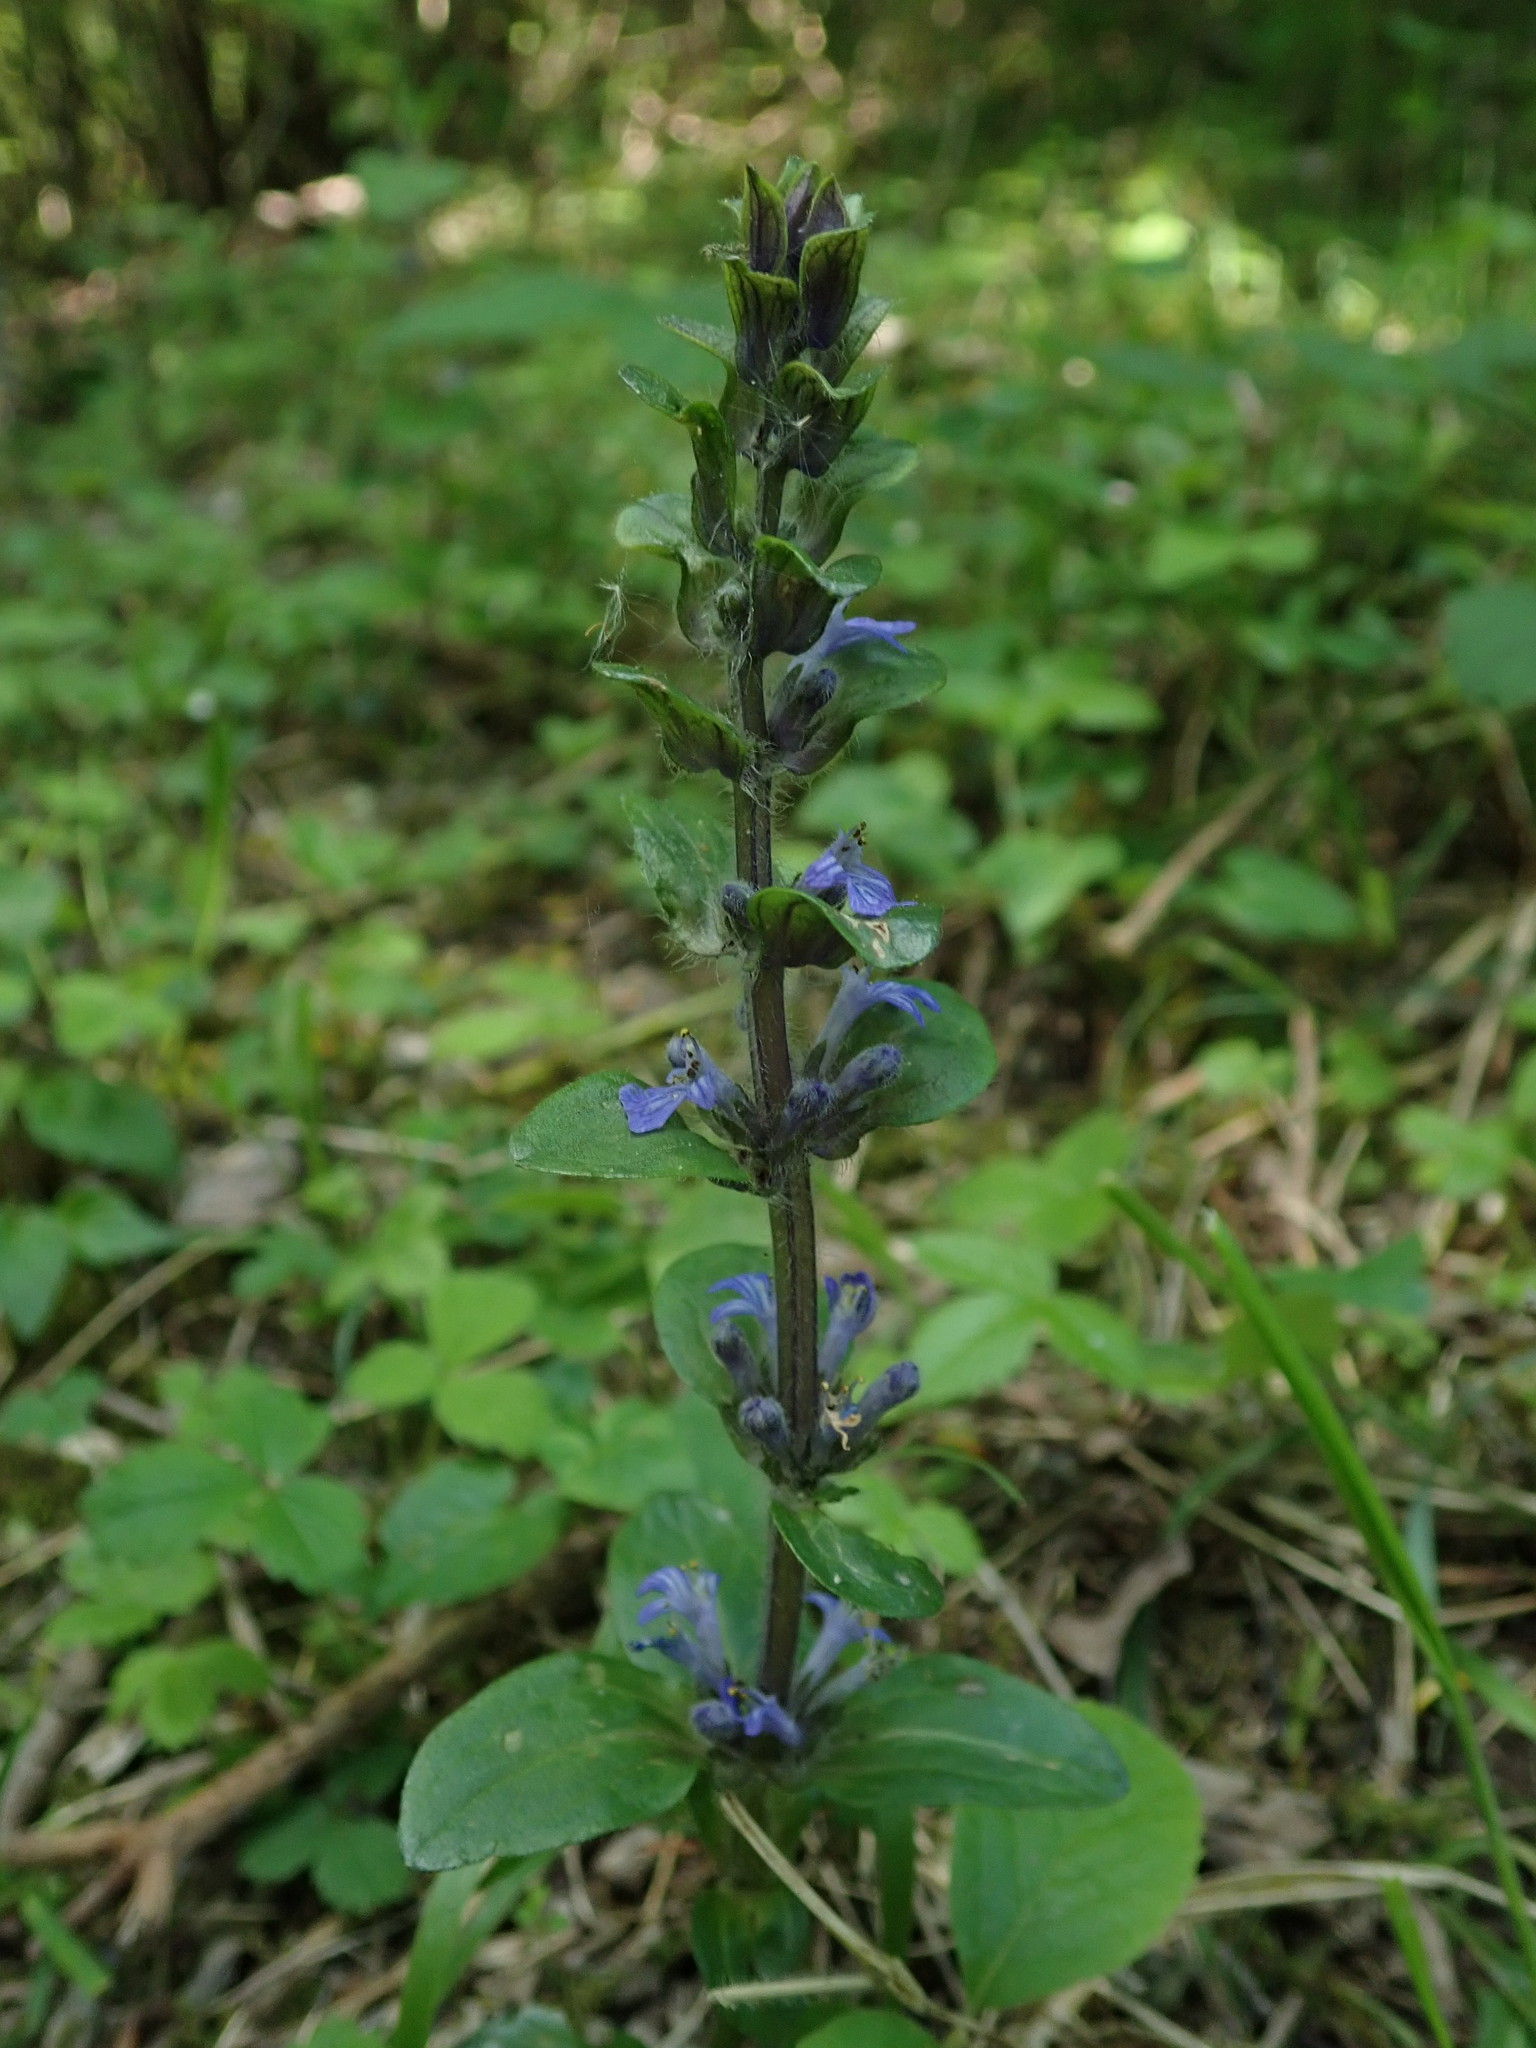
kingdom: Plantae
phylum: Tracheophyta
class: Magnoliopsida
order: Lamiales
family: Lamiaceae
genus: Ajuga
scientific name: Ajuga reptans
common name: Bugle
